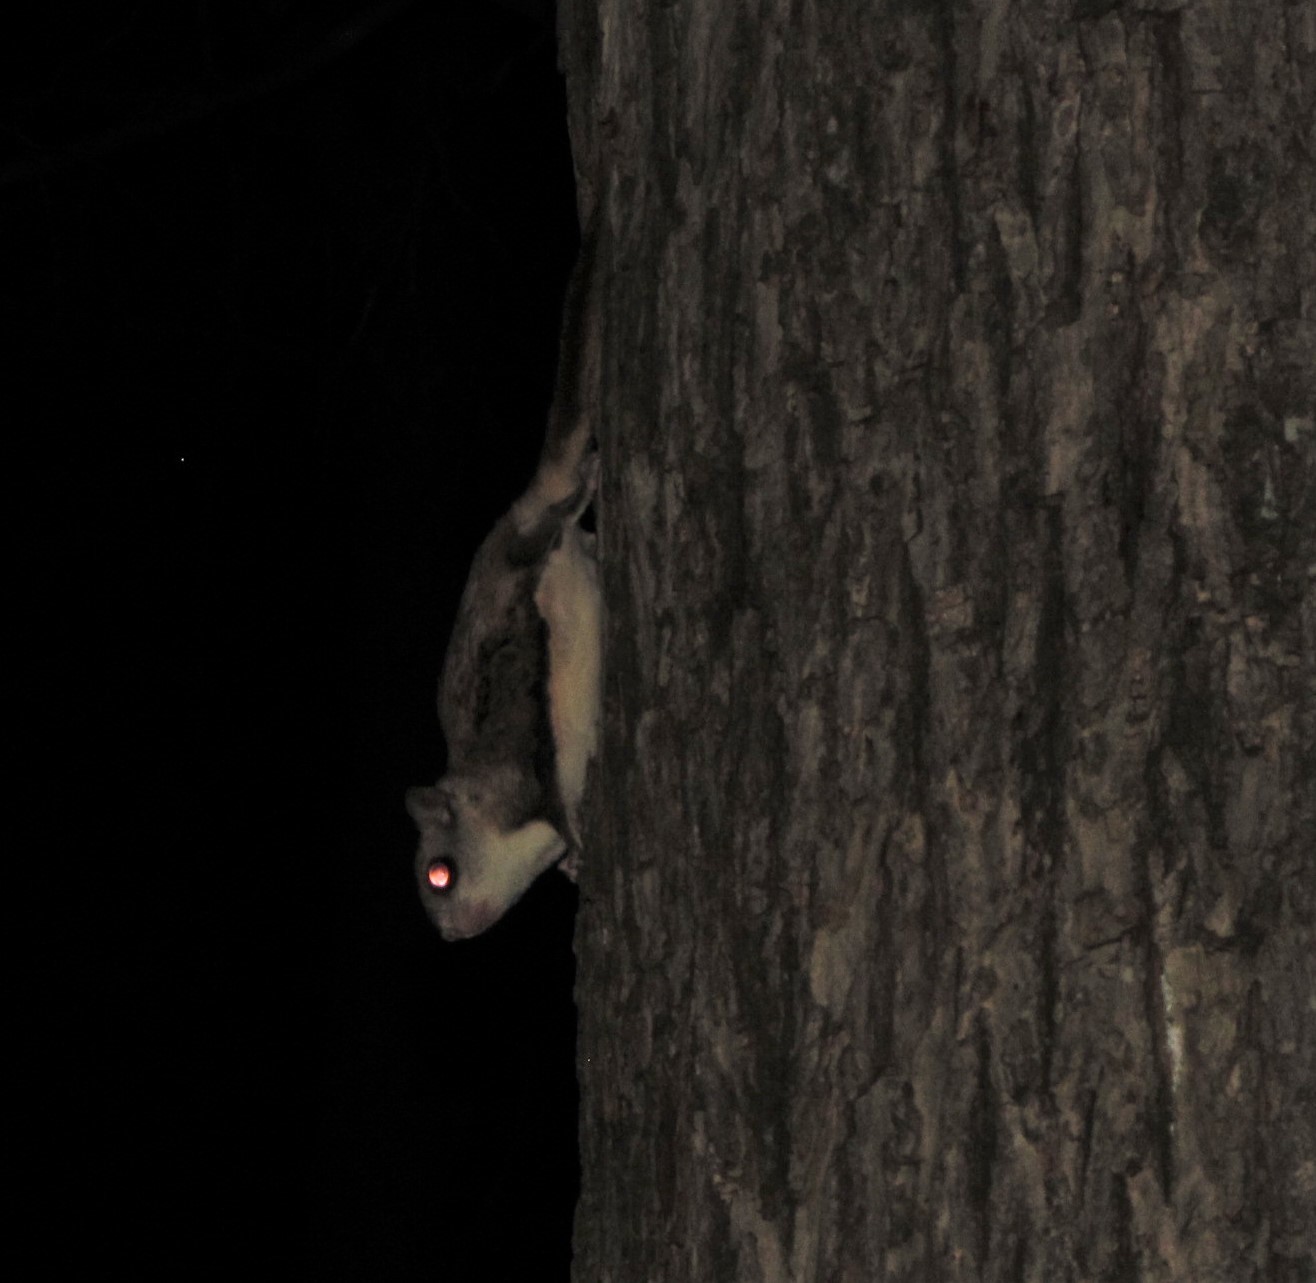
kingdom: Animalia
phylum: Chordata
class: Mammalia
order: Rodentia
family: Sciuridae
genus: Glaucomys
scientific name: Glaucomys volans
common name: Southern flying squirrel
